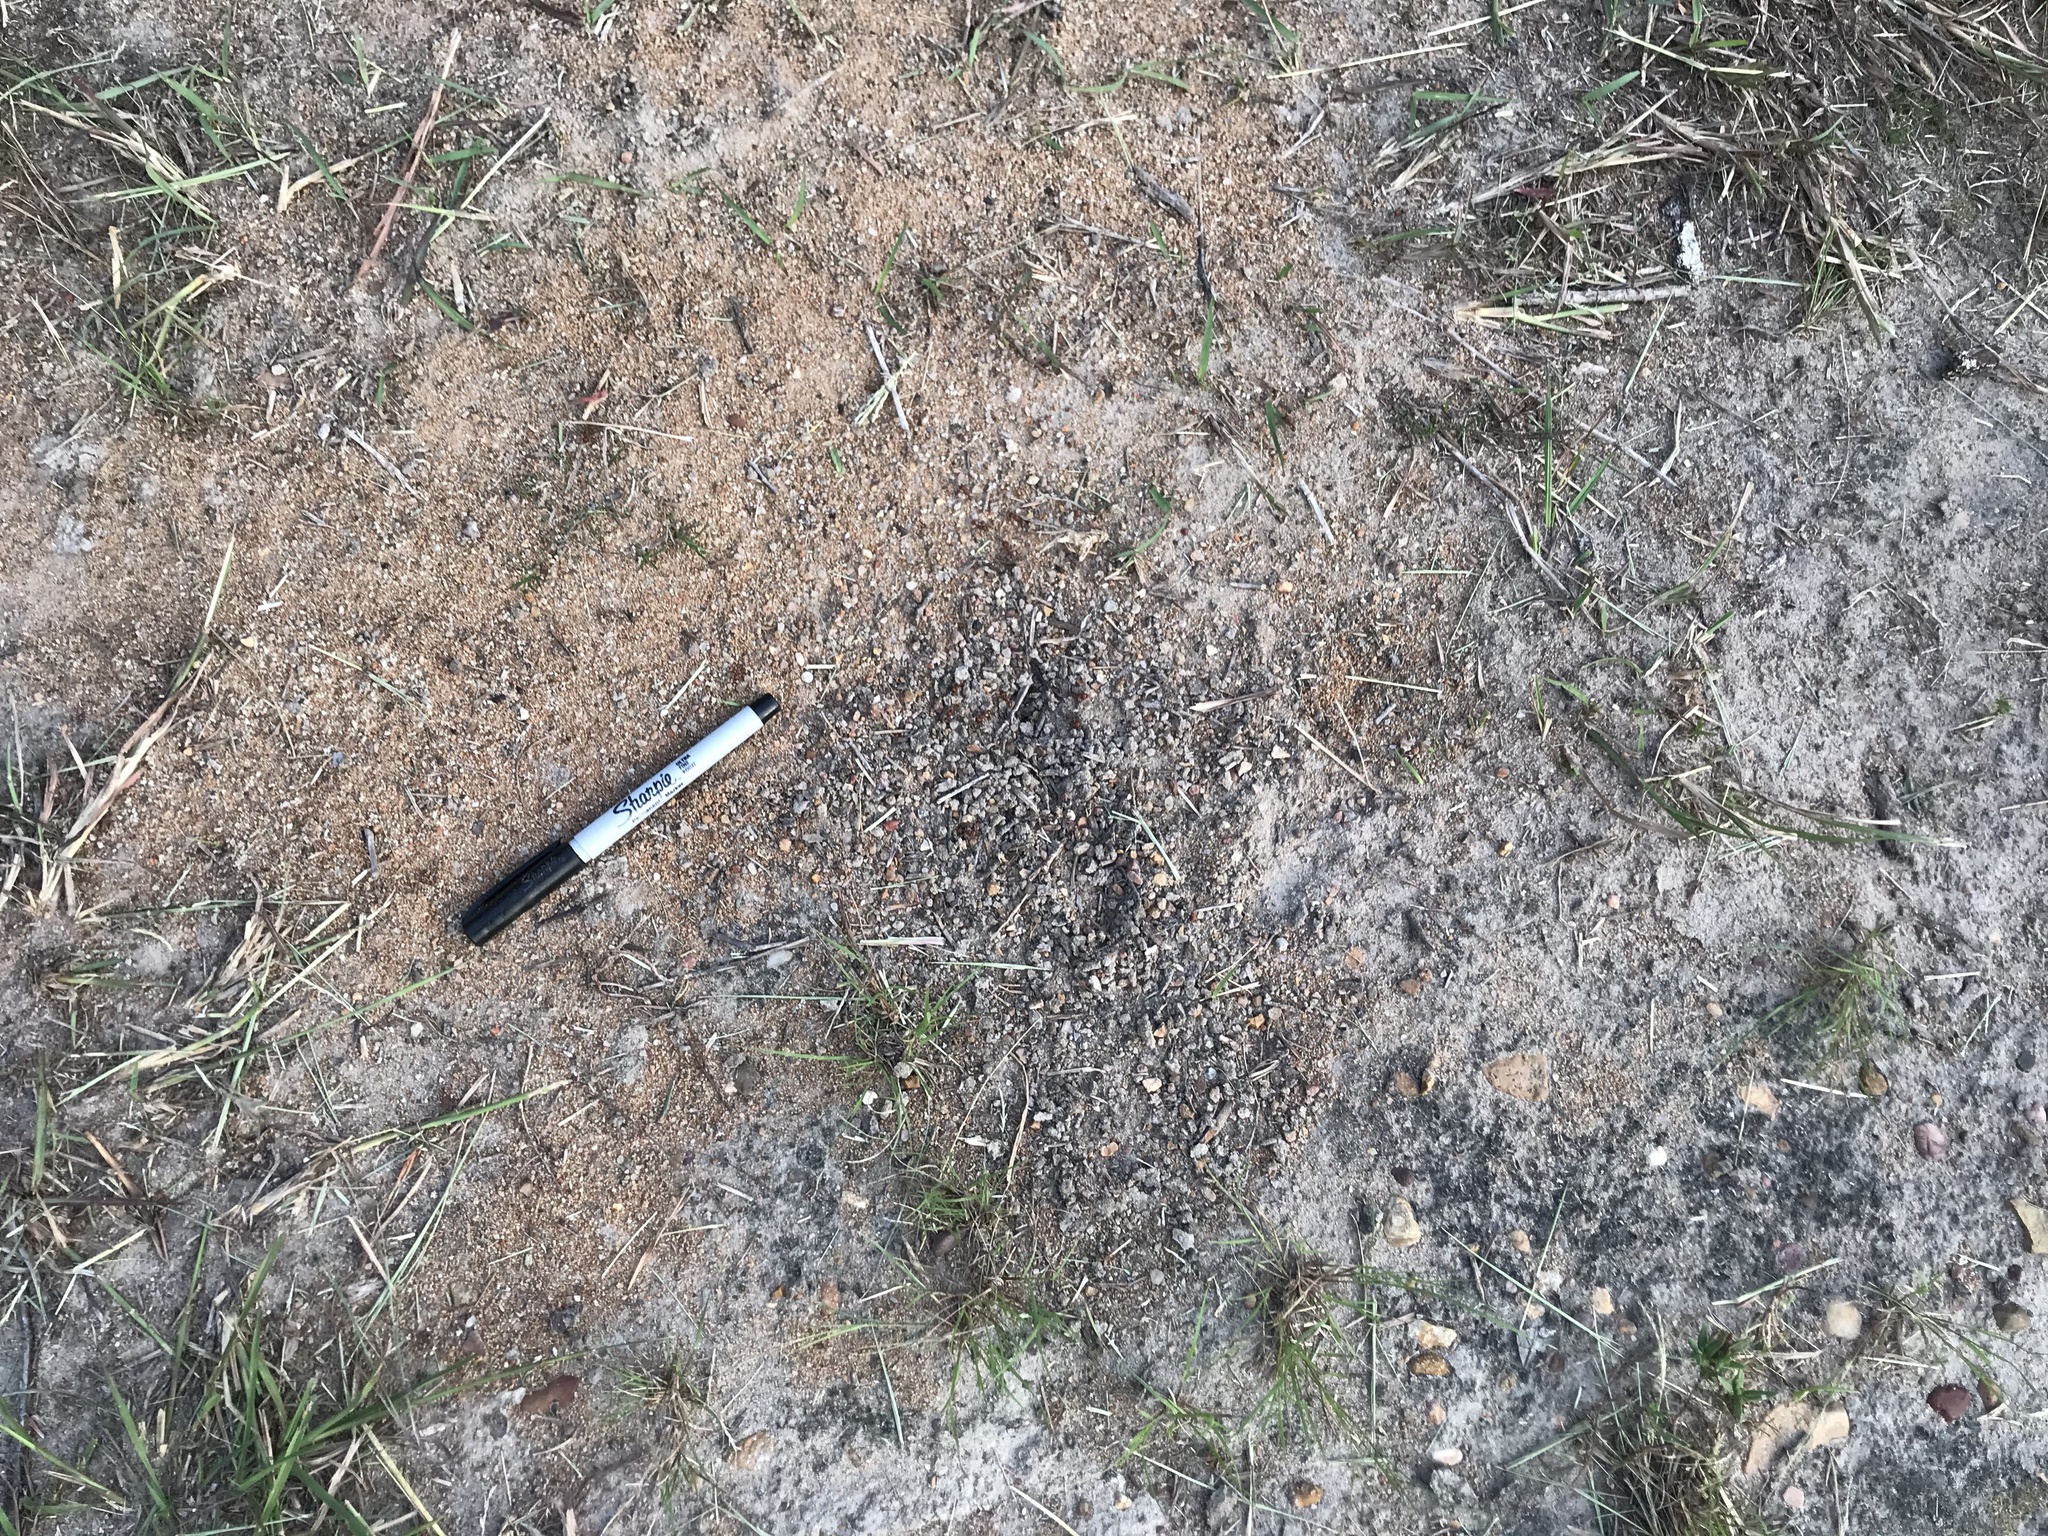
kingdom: Animalia
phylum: Arthropoda
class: Insecta
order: Hymenoptera
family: Formicidae
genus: Pogonomyrmex
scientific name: Pogonomyrmex barbatus
